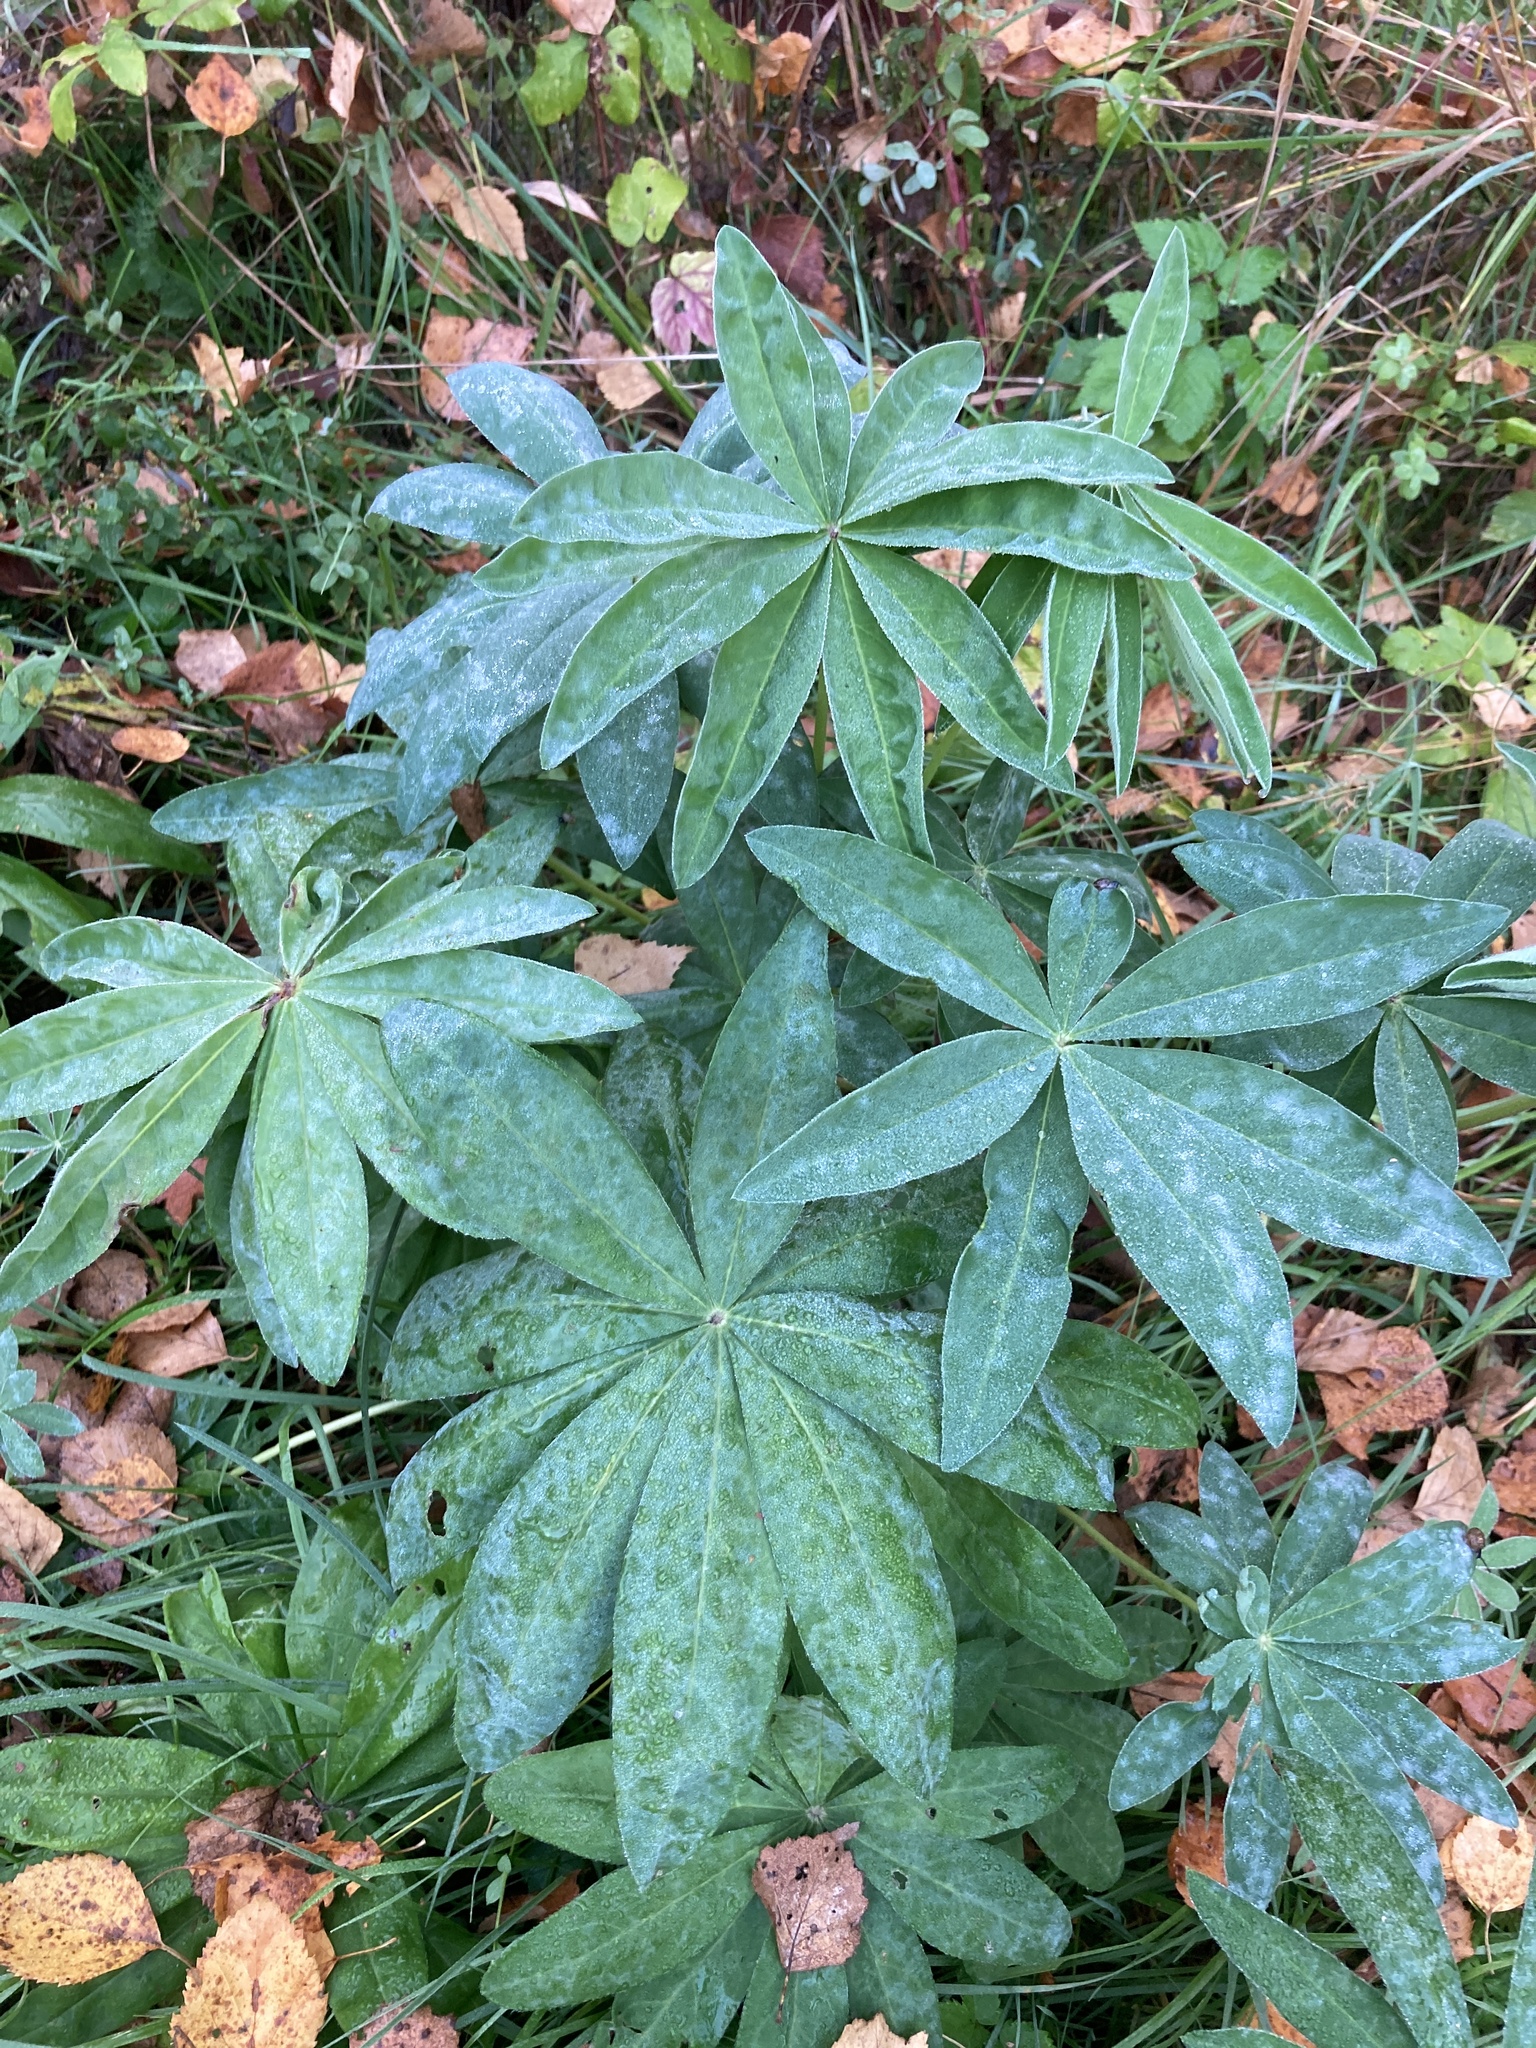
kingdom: Plantae
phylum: Tracheophyta
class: Magnoliopsida
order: Fabales
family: Fabaceae
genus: Lupinus
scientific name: Lupinus polyphyllus
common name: Garden lupin
